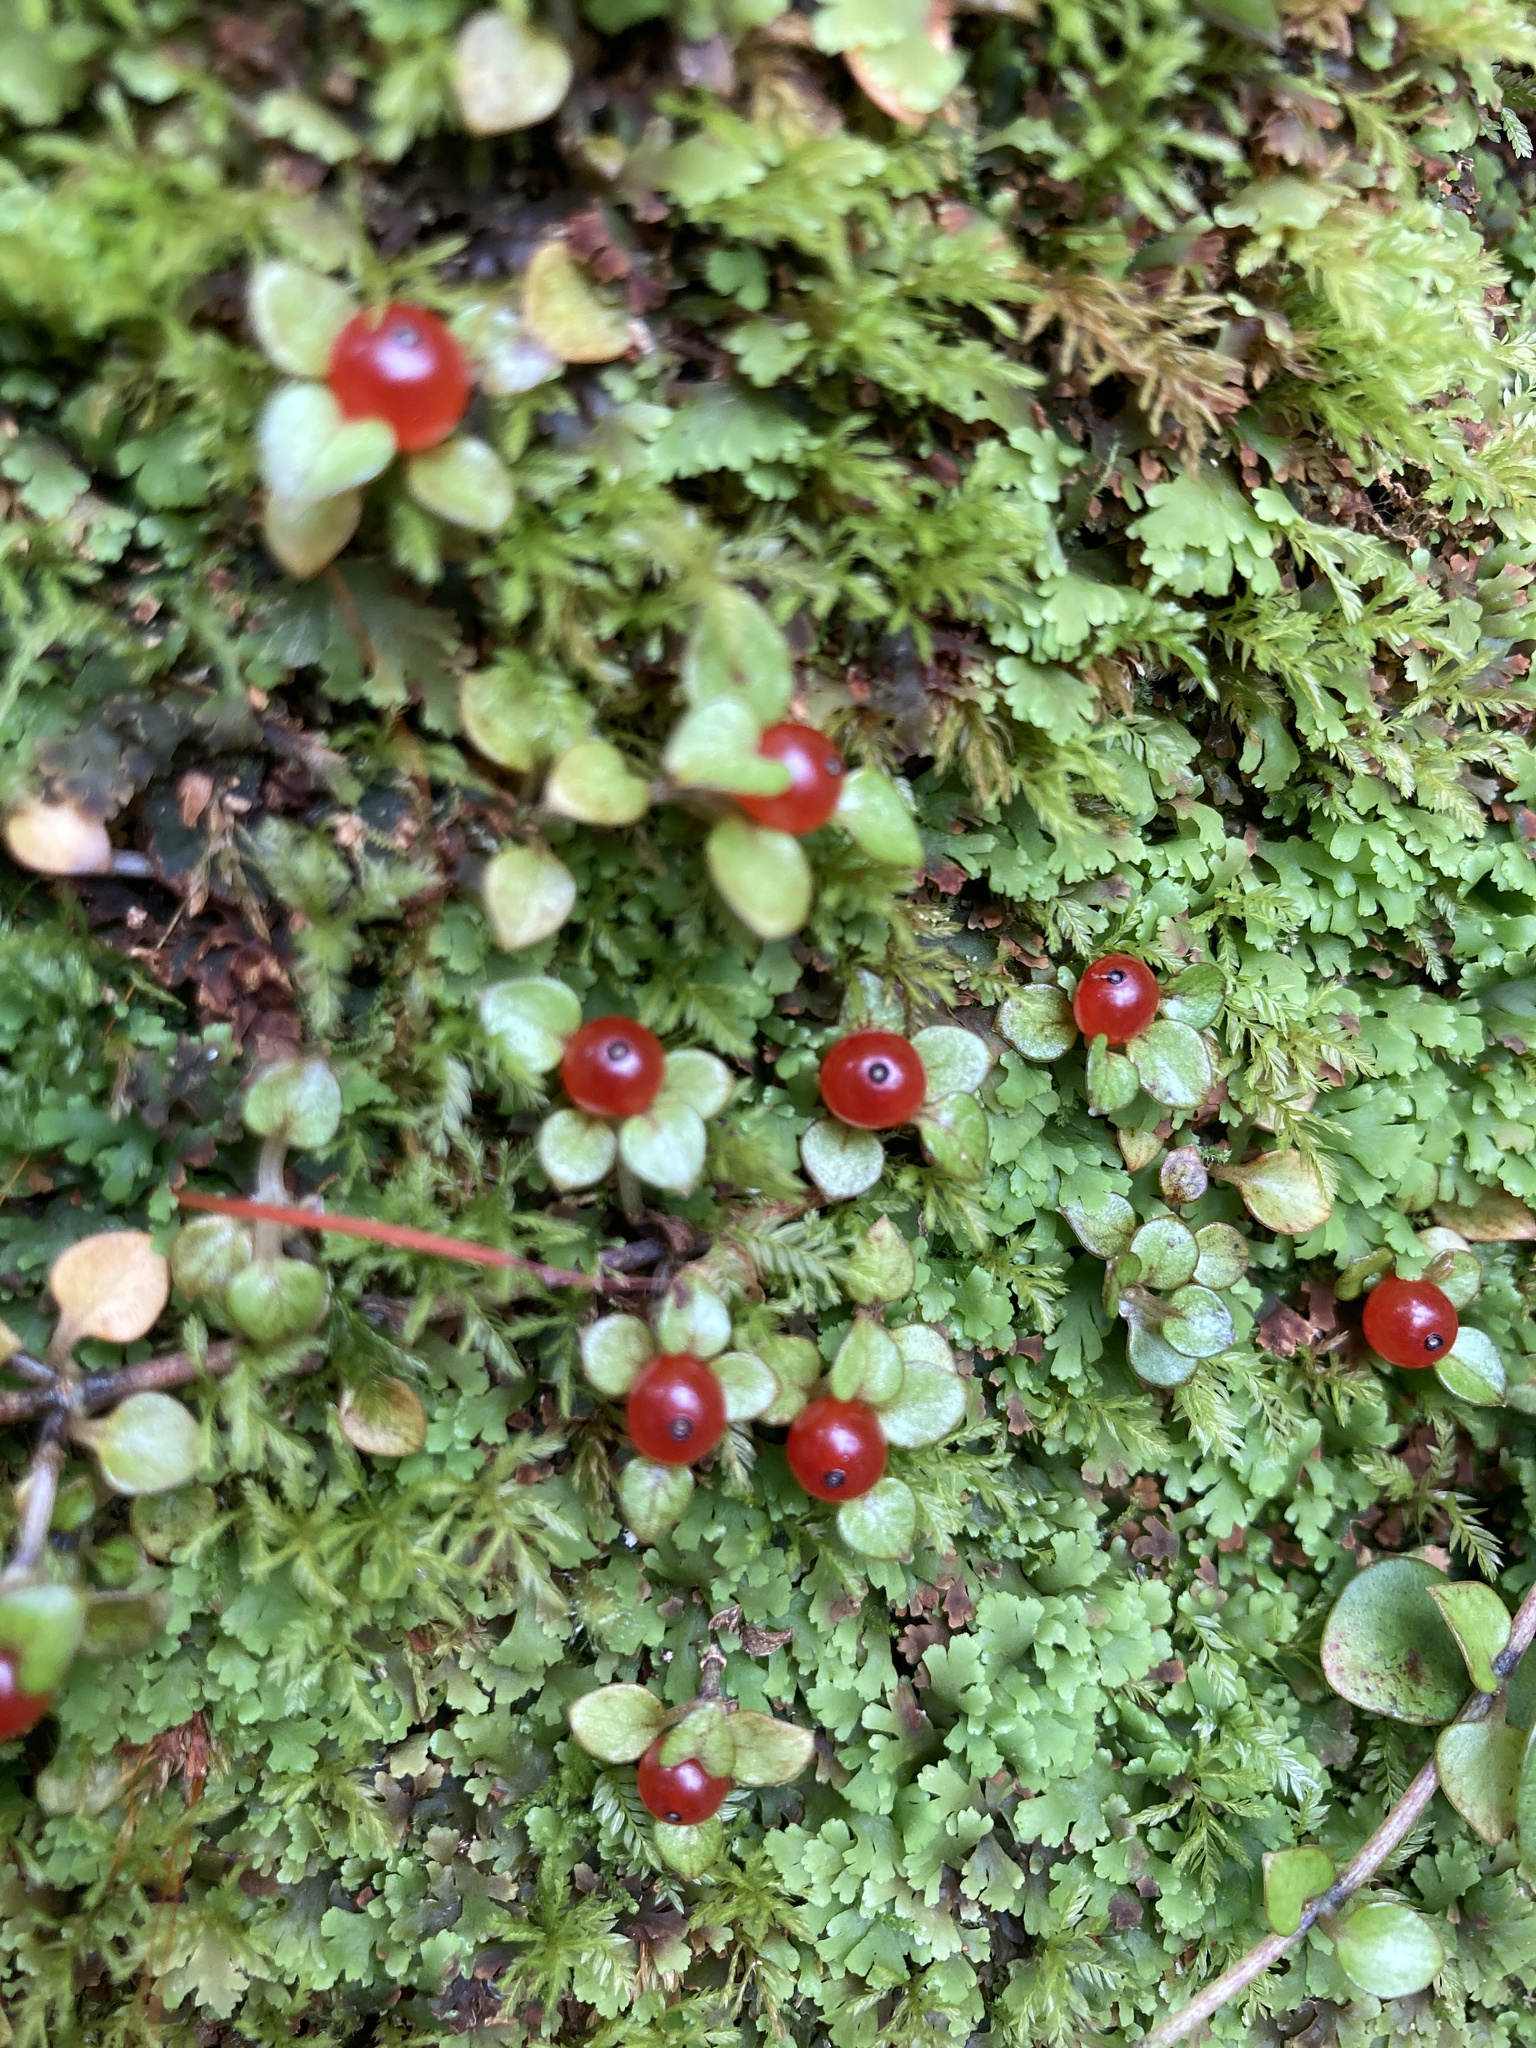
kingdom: Plantae
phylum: Tracheophyta
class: Magnoliopsida
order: Gentianales
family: Rubiaceae
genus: Nertera
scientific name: Nertera granadensis
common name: Beadplant
